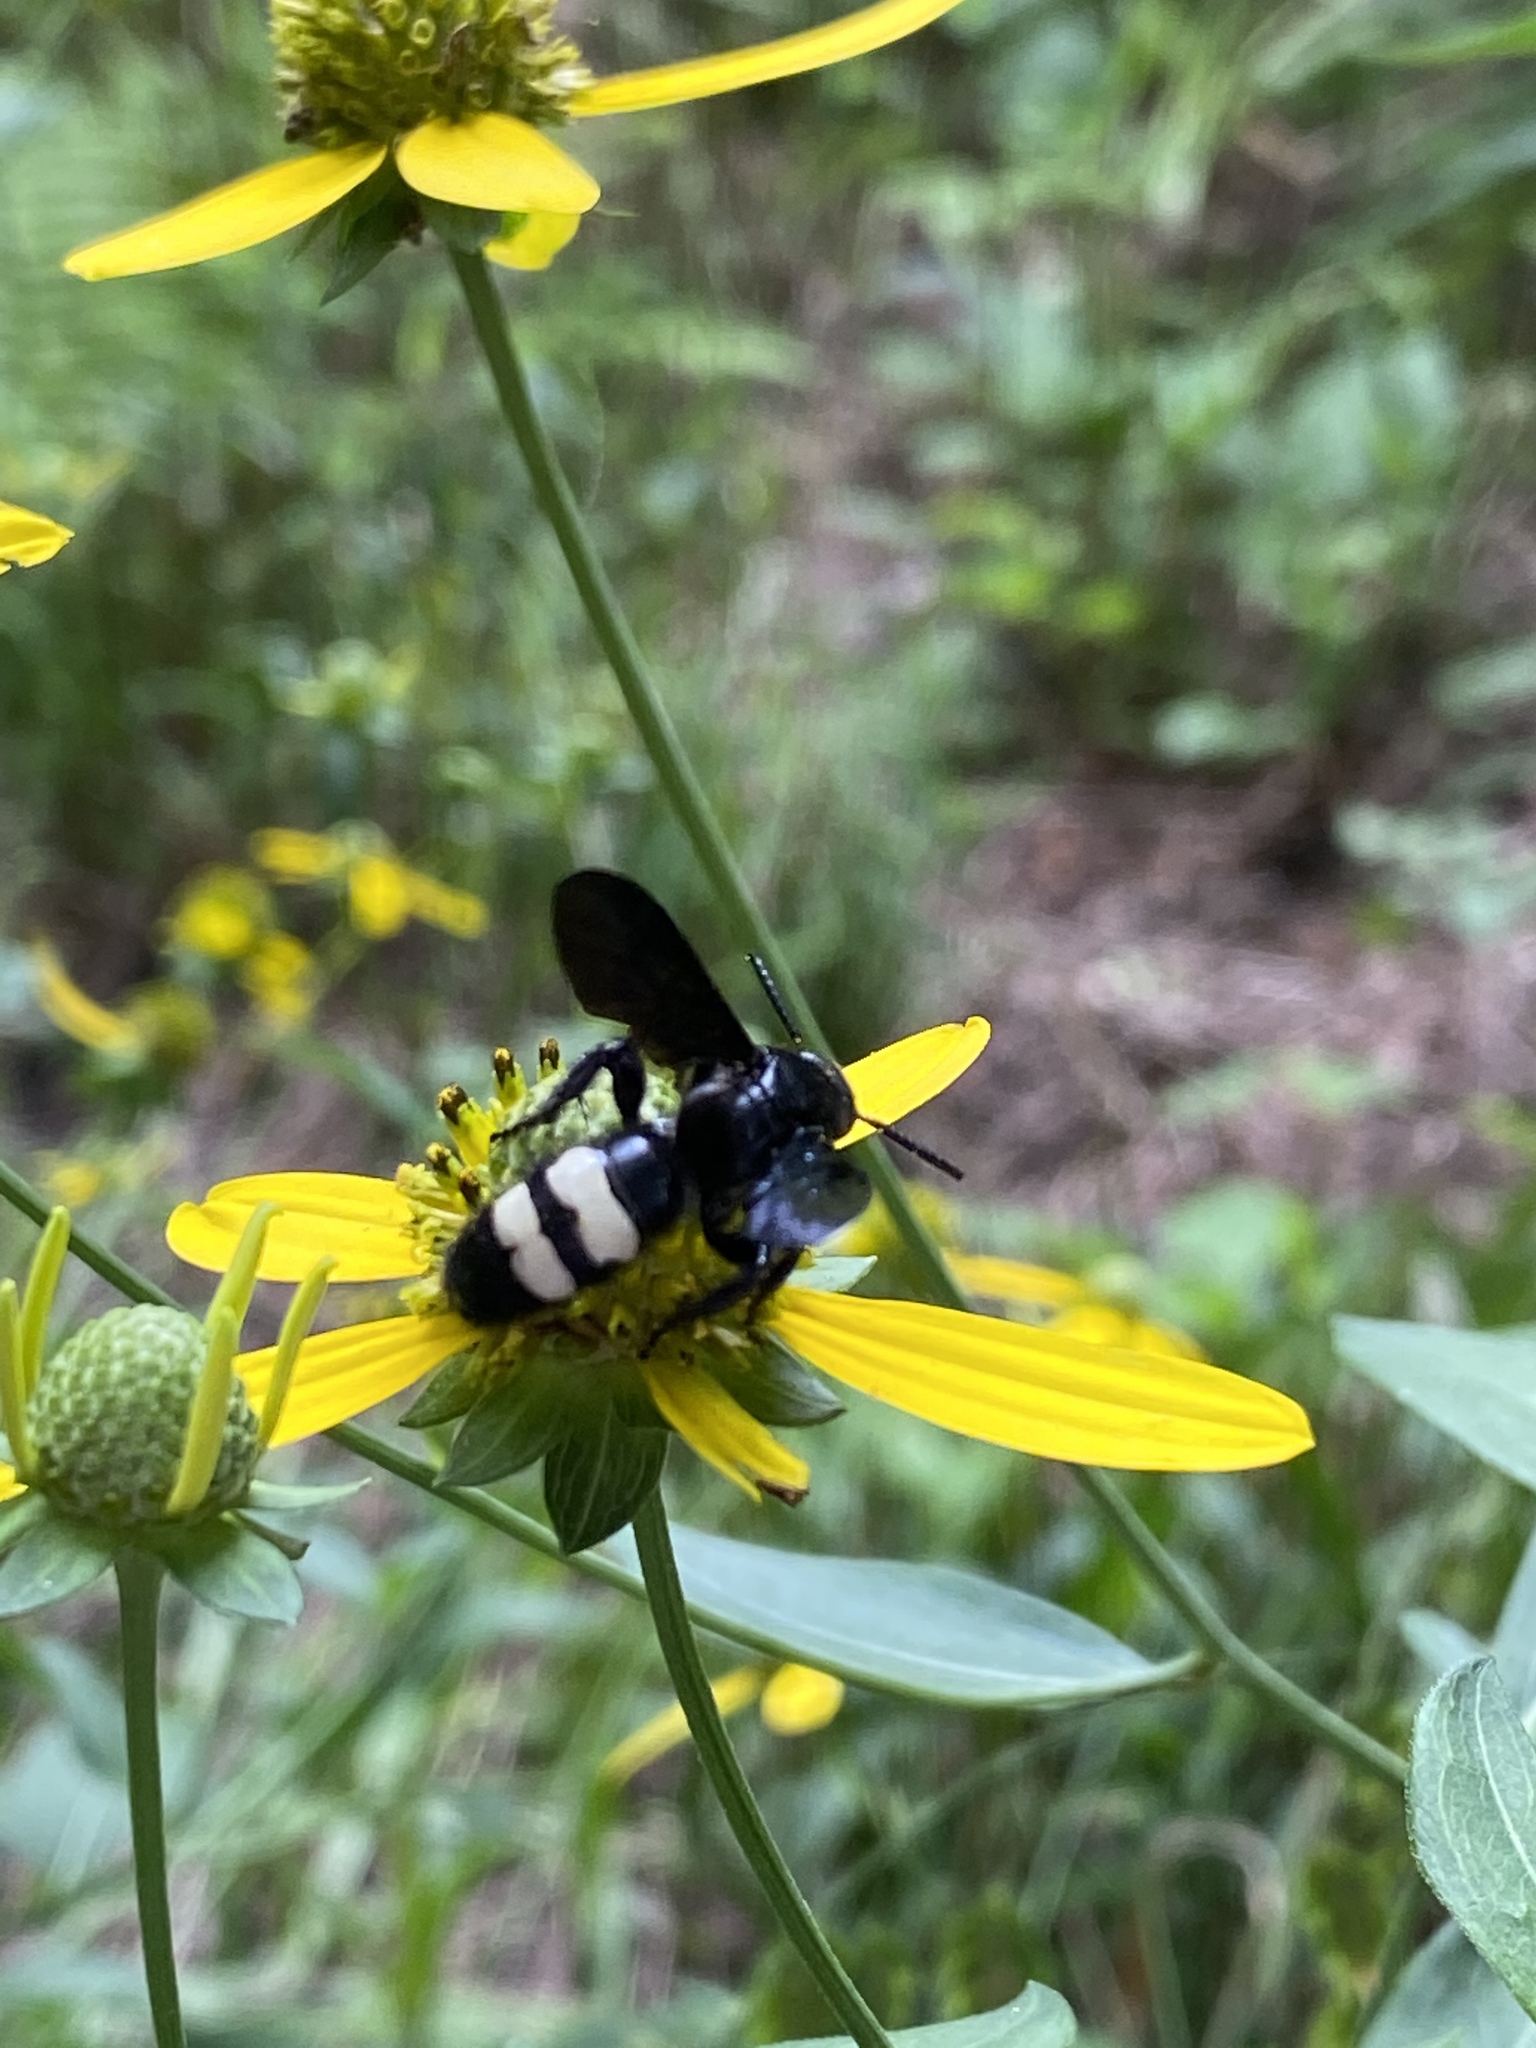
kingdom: Animalia
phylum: Arthropoda
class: Insecta
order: Hymenoptera
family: Scoliidae
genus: Scolia
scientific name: Scolia bicincta
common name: Double-banded scoliid wasp
